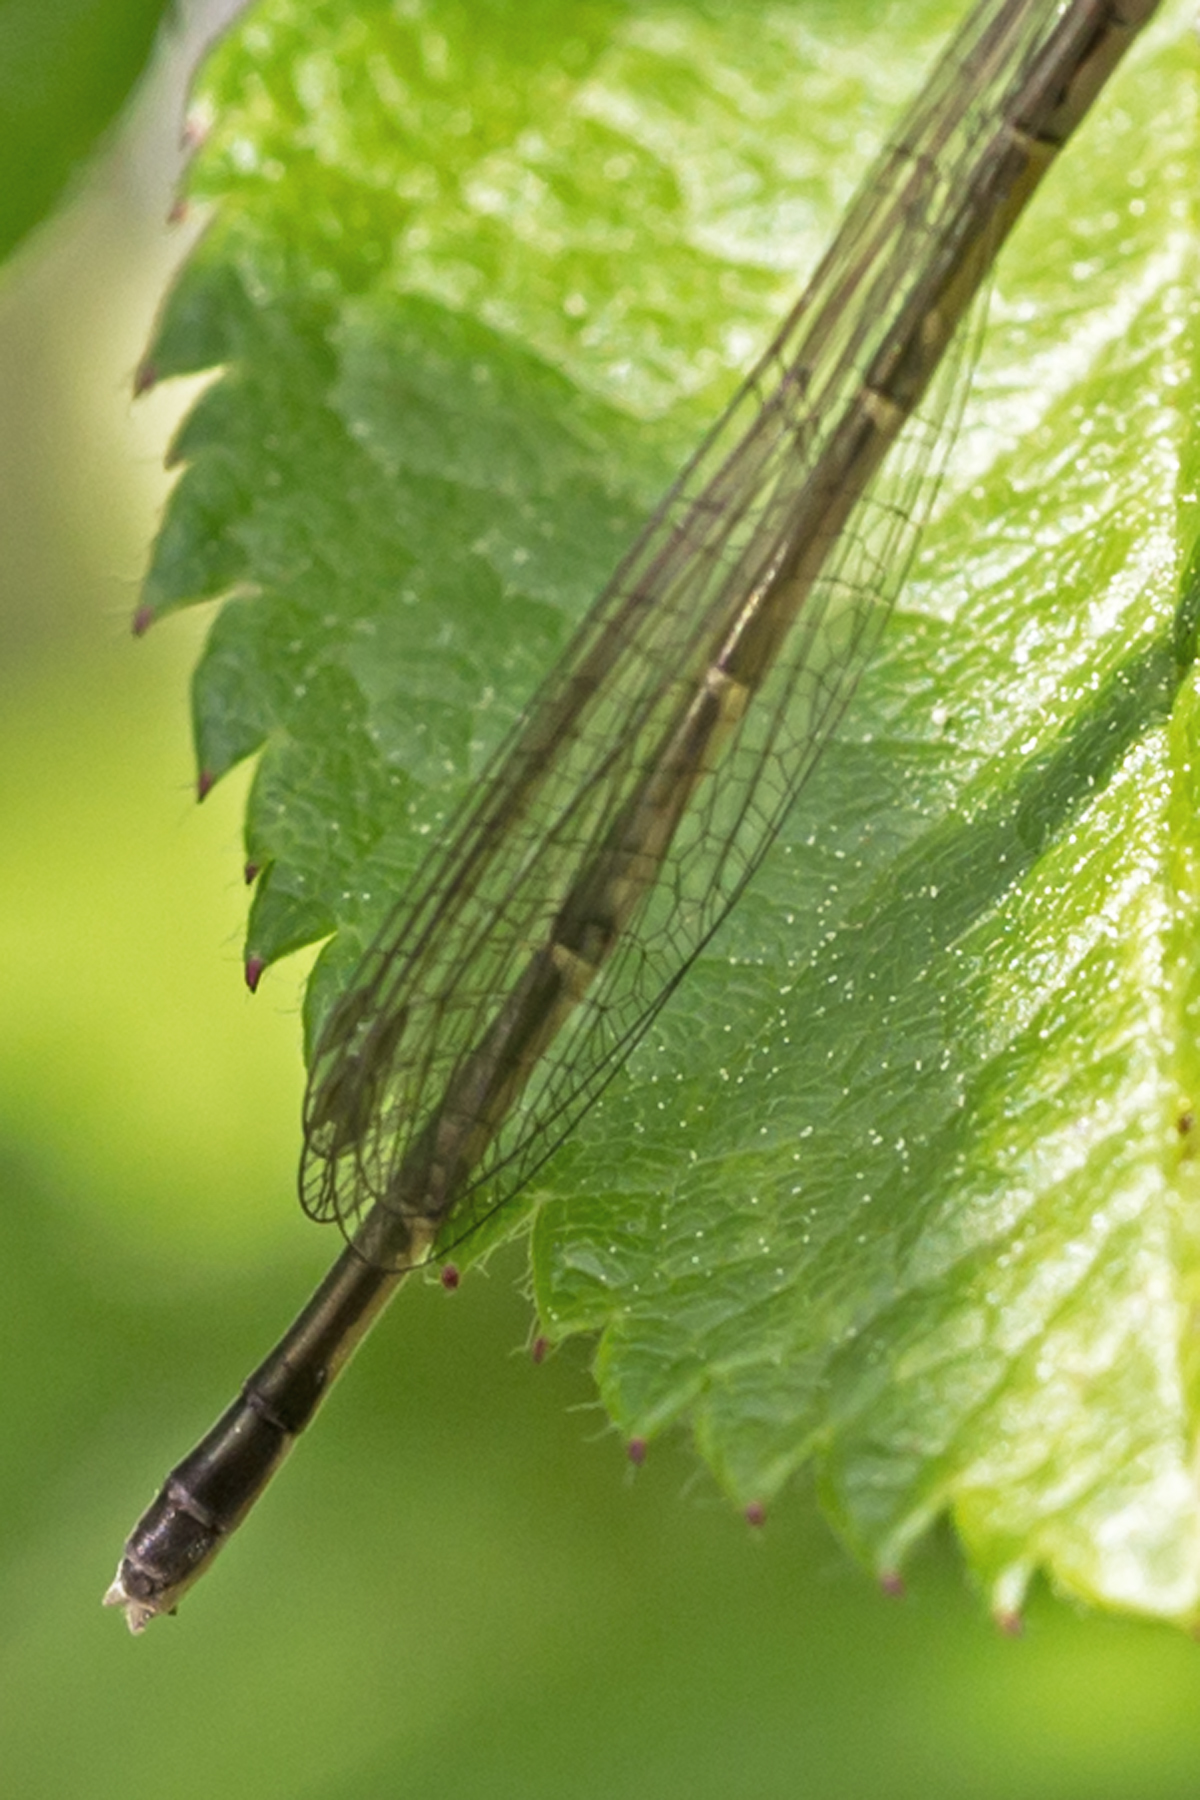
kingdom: Animalia
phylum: Arthropoda
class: Insecta
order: Odonata
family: Coenagrionidae
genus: Ischnura
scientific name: Ischnura posita
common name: Fragile forktail
